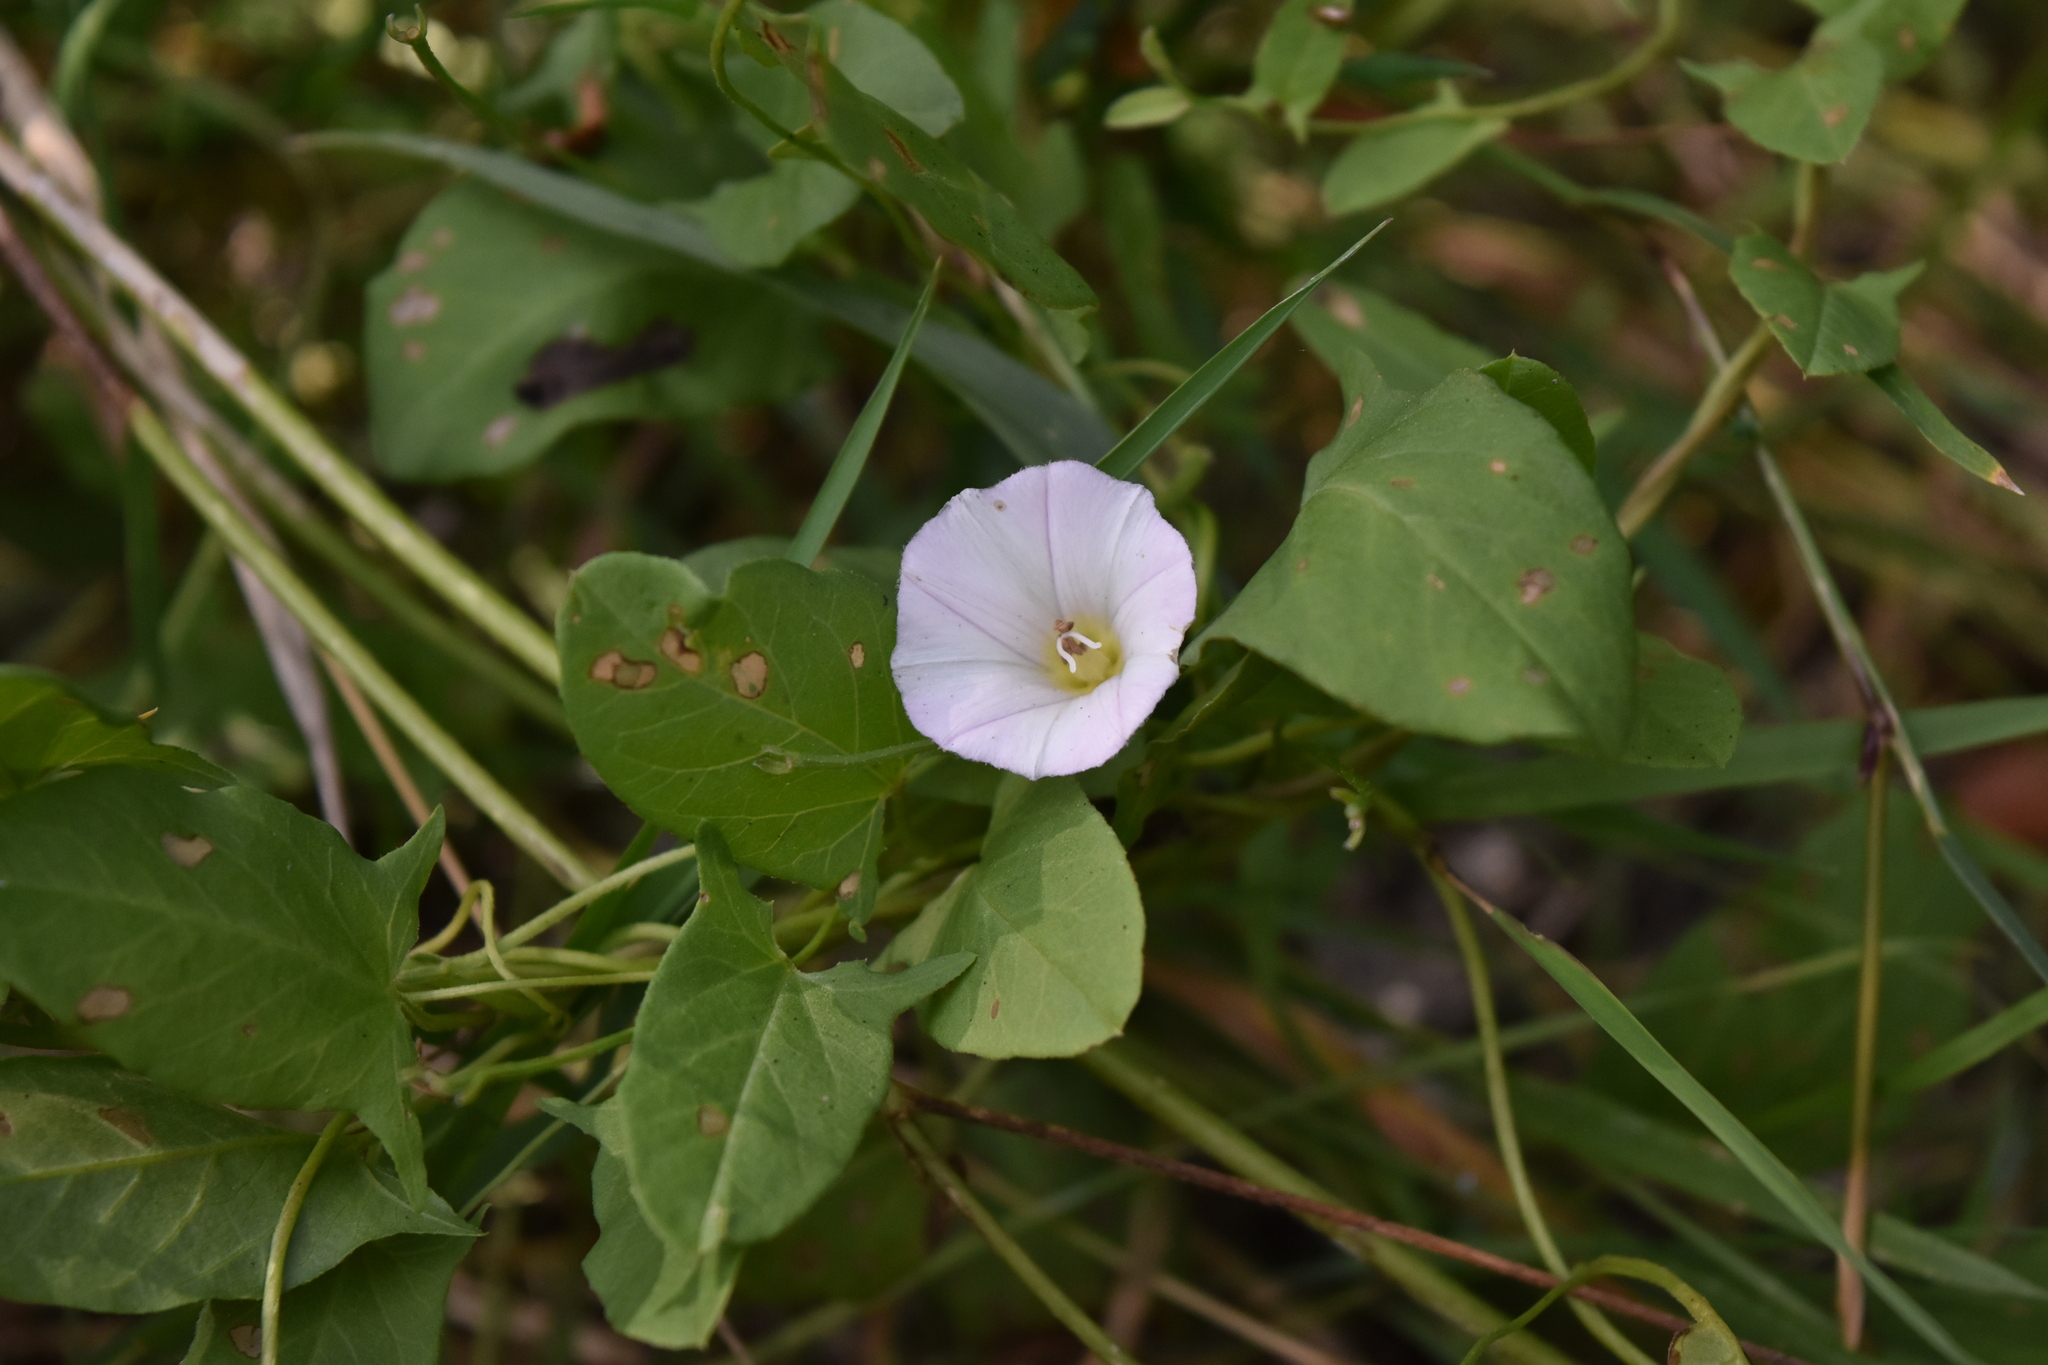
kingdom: Plantae
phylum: Tracheophyta
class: Magnoliopsida
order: Solanales
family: Convolvulaceae
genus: Convolvulus
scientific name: Convolvulus arvensis
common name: Field bindweed
